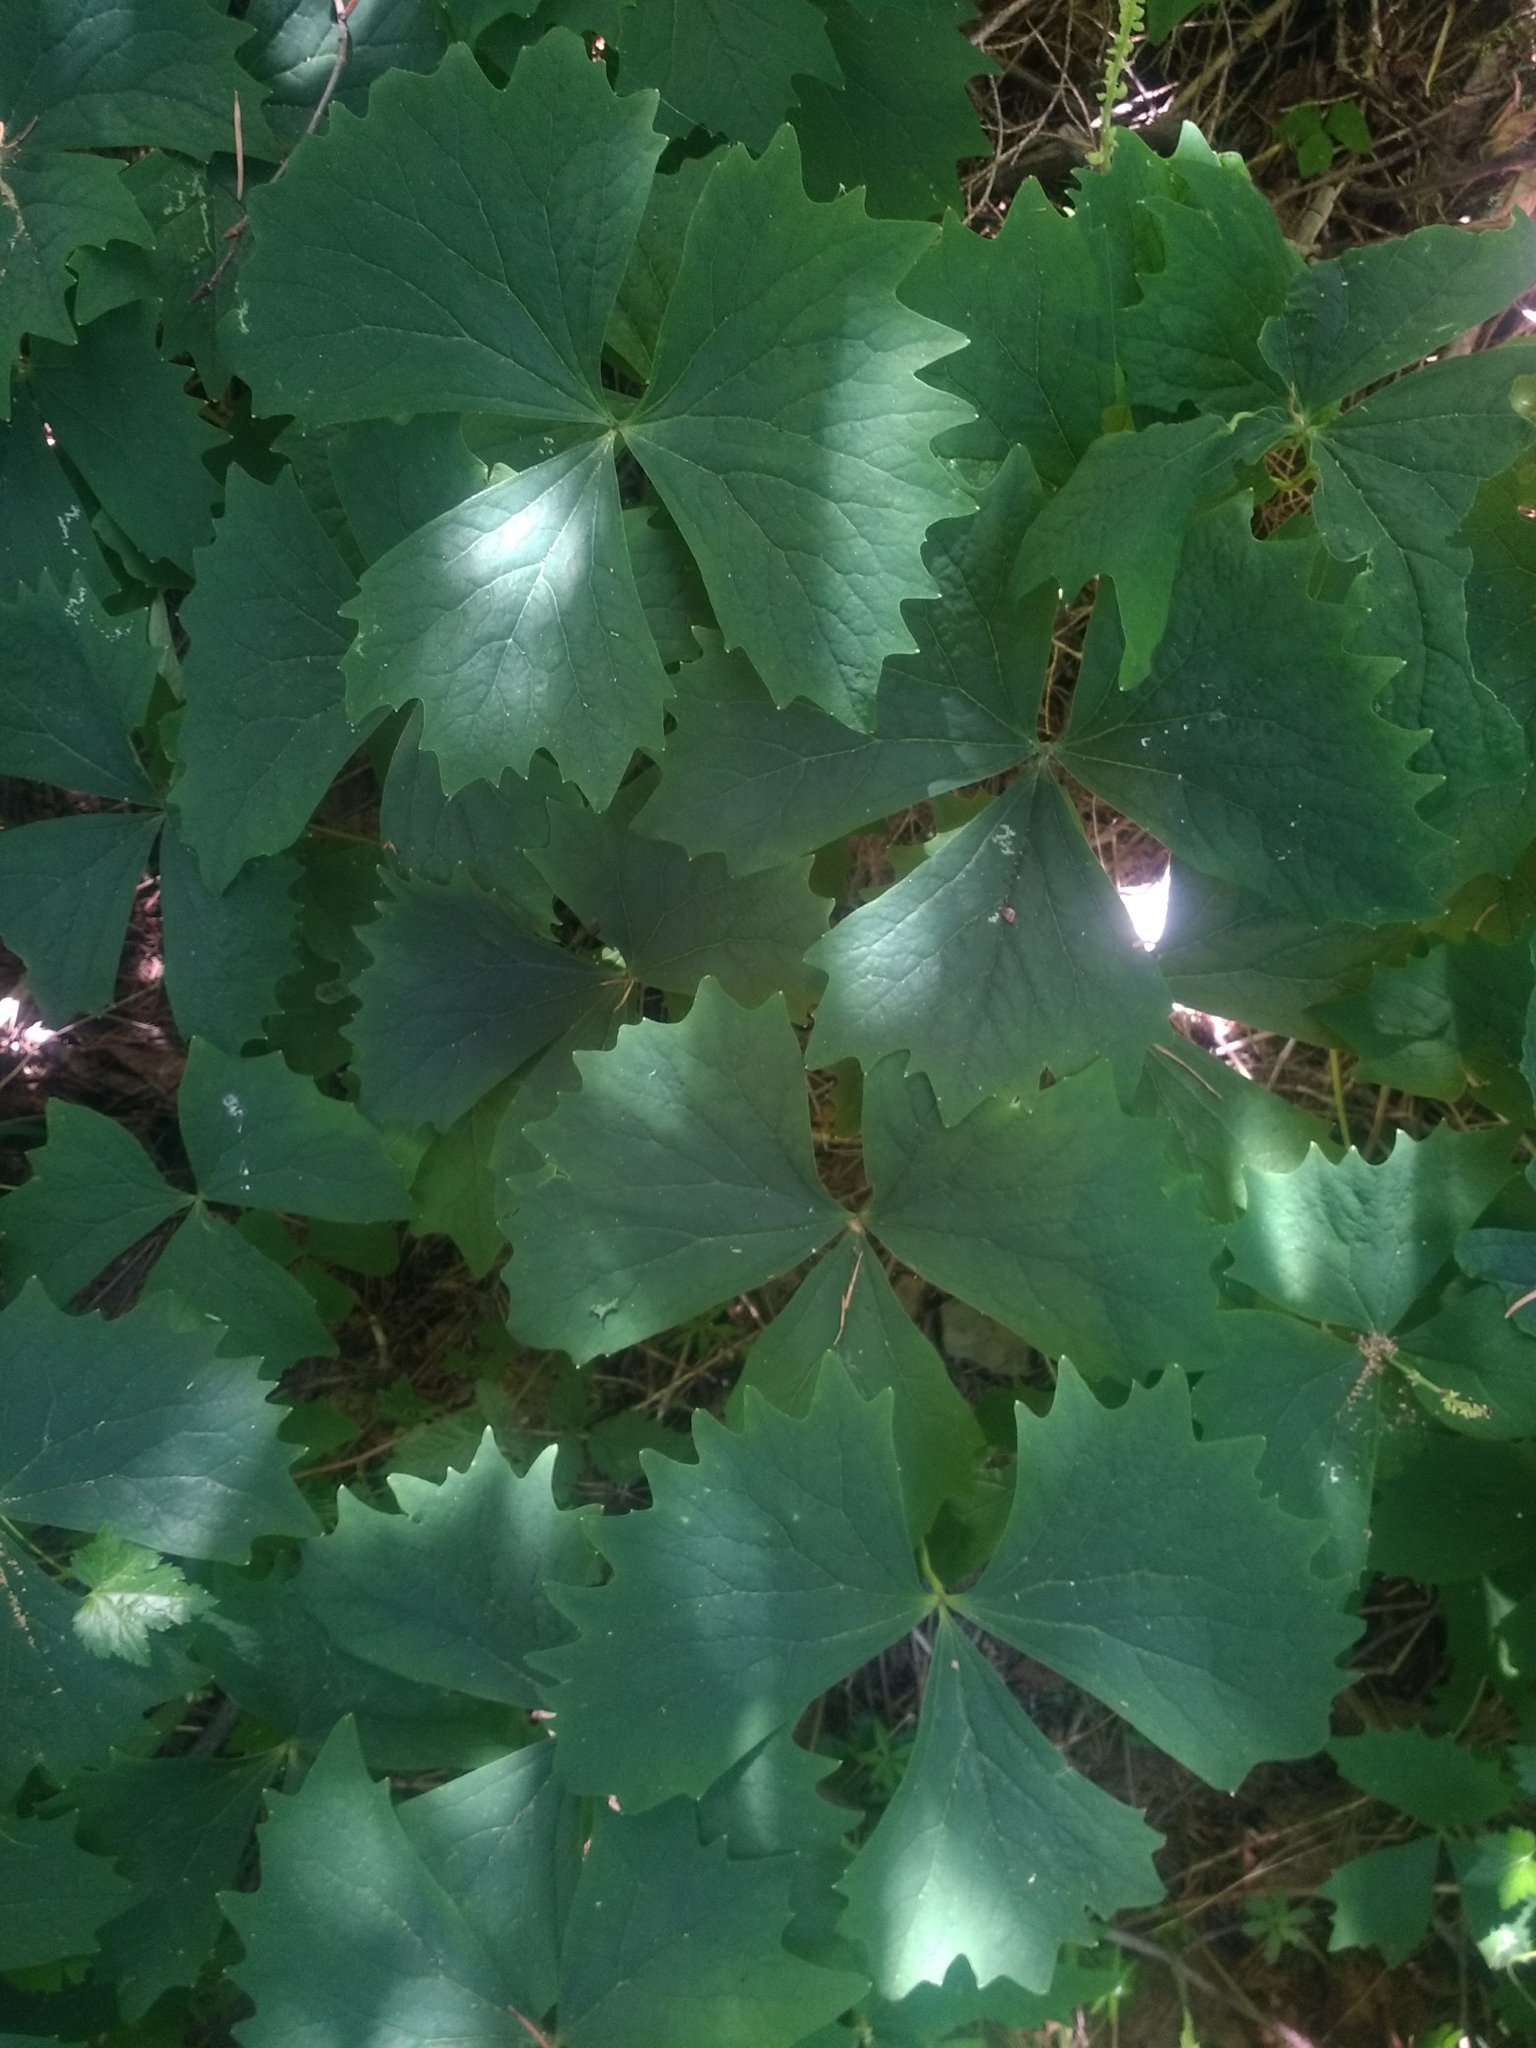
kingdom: Plantae
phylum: Tracheophyta
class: Magnoliopsida
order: Ranunculales
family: Berberidaceae
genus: Achlys
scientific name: Achlys triphylla
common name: Vanilla-leaf
